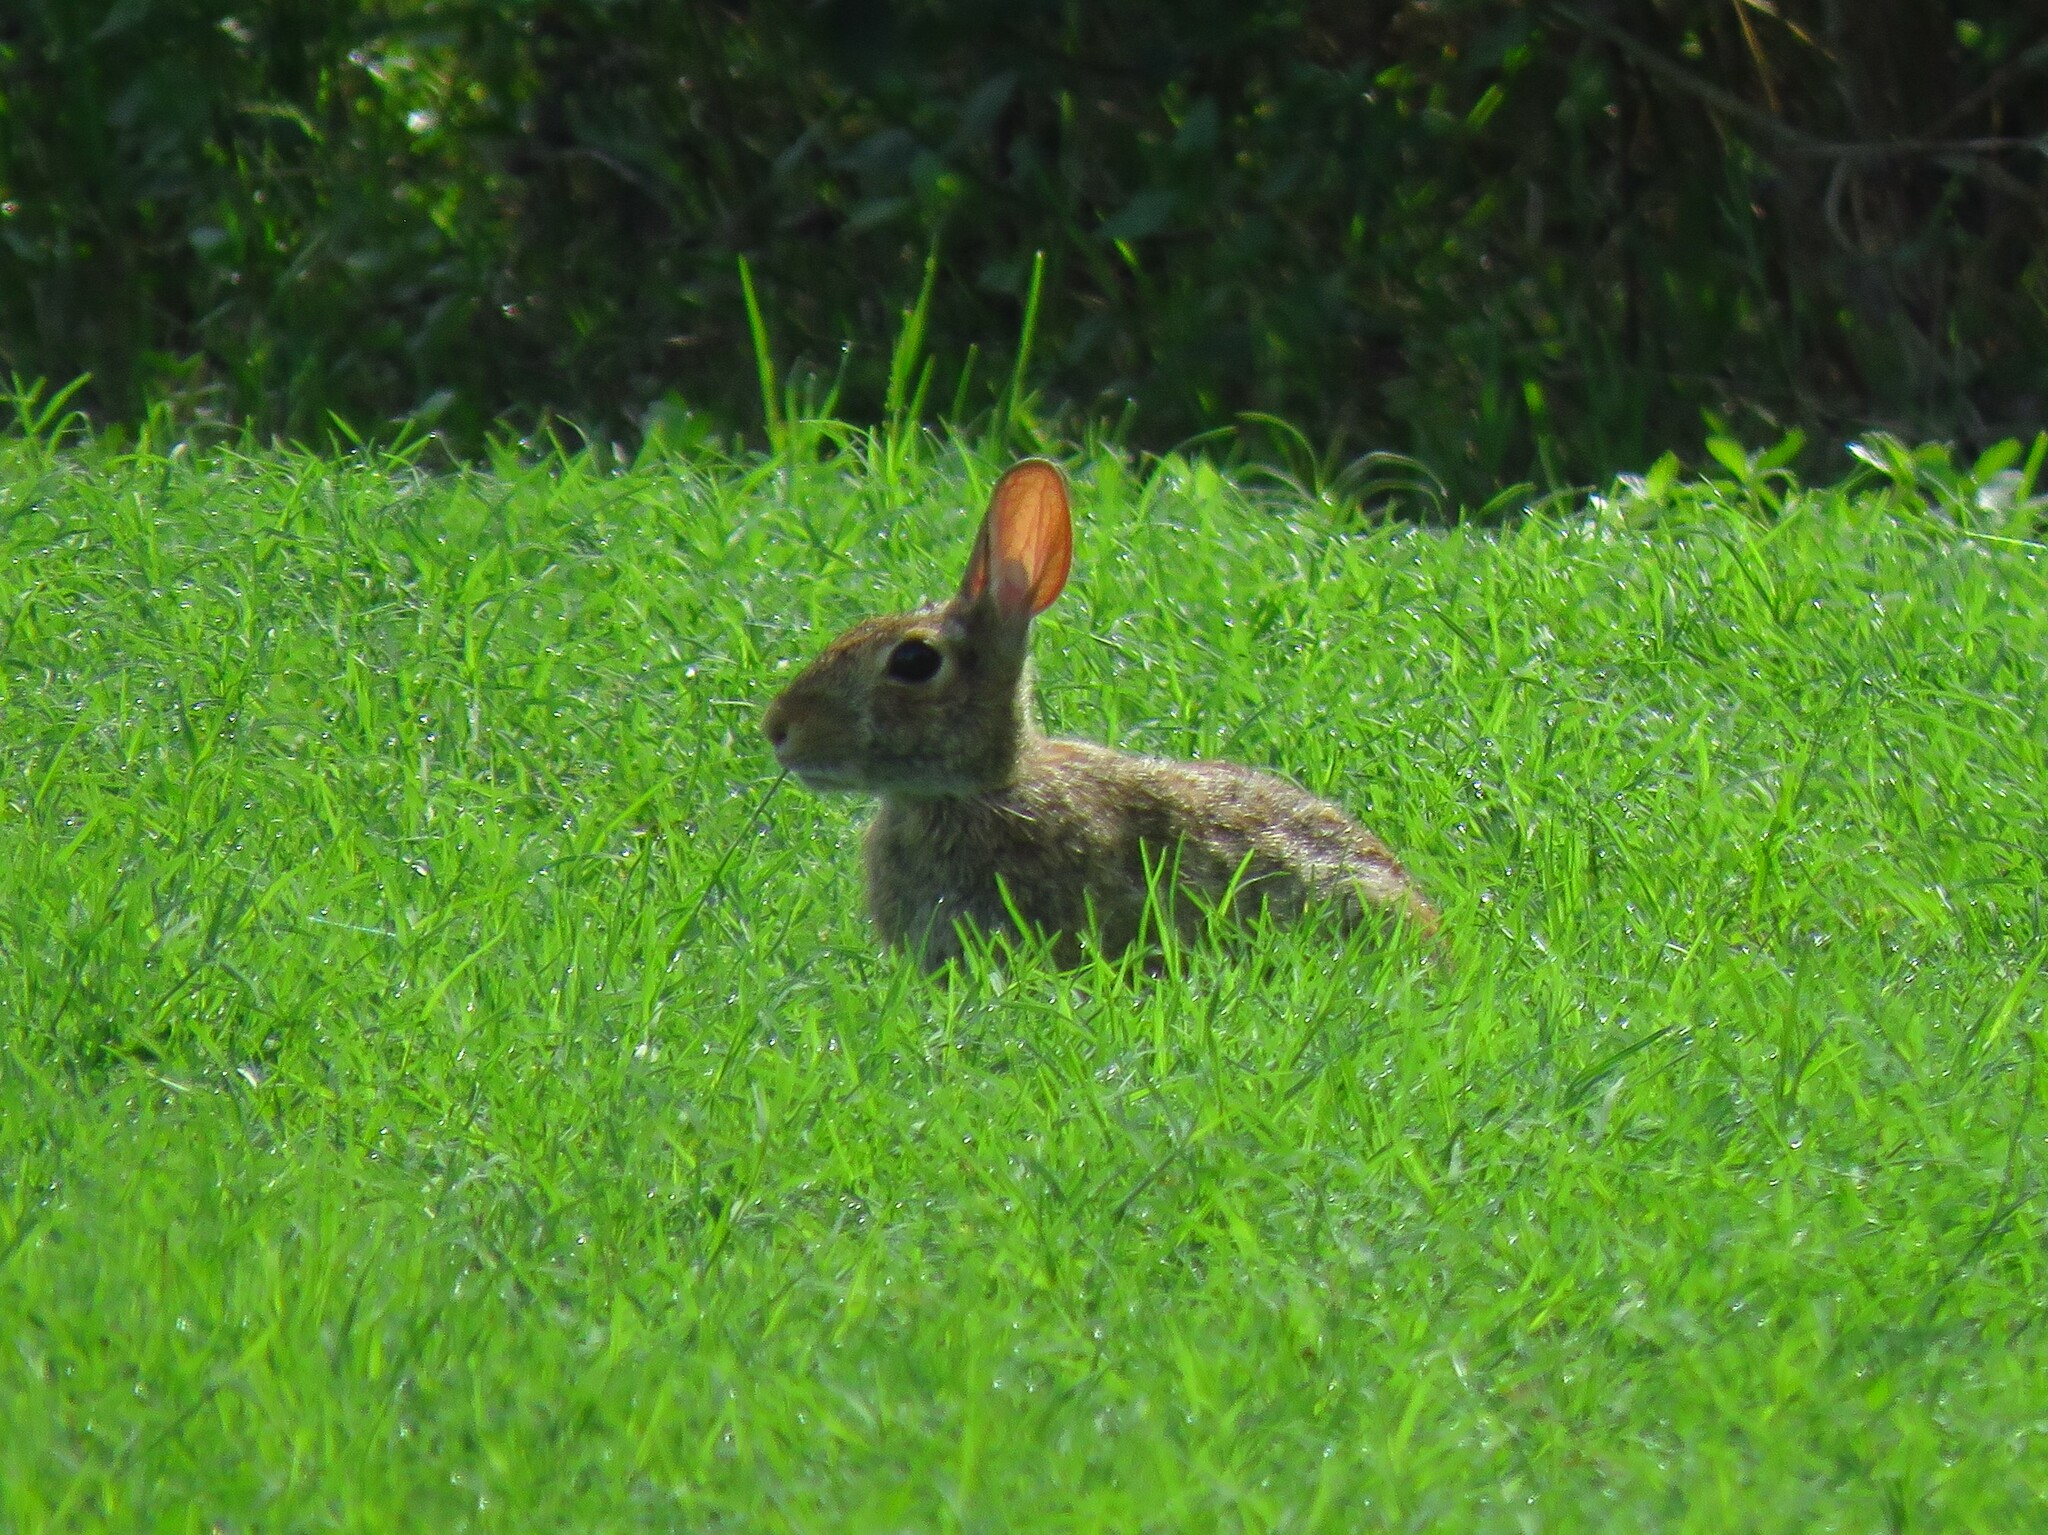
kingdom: Animalia
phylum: Chordata
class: Mammalia
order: Lagomorpha
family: Leporidae
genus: Sylvilagus
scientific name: Sylvilagus floridanus
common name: Eastern cottontail
